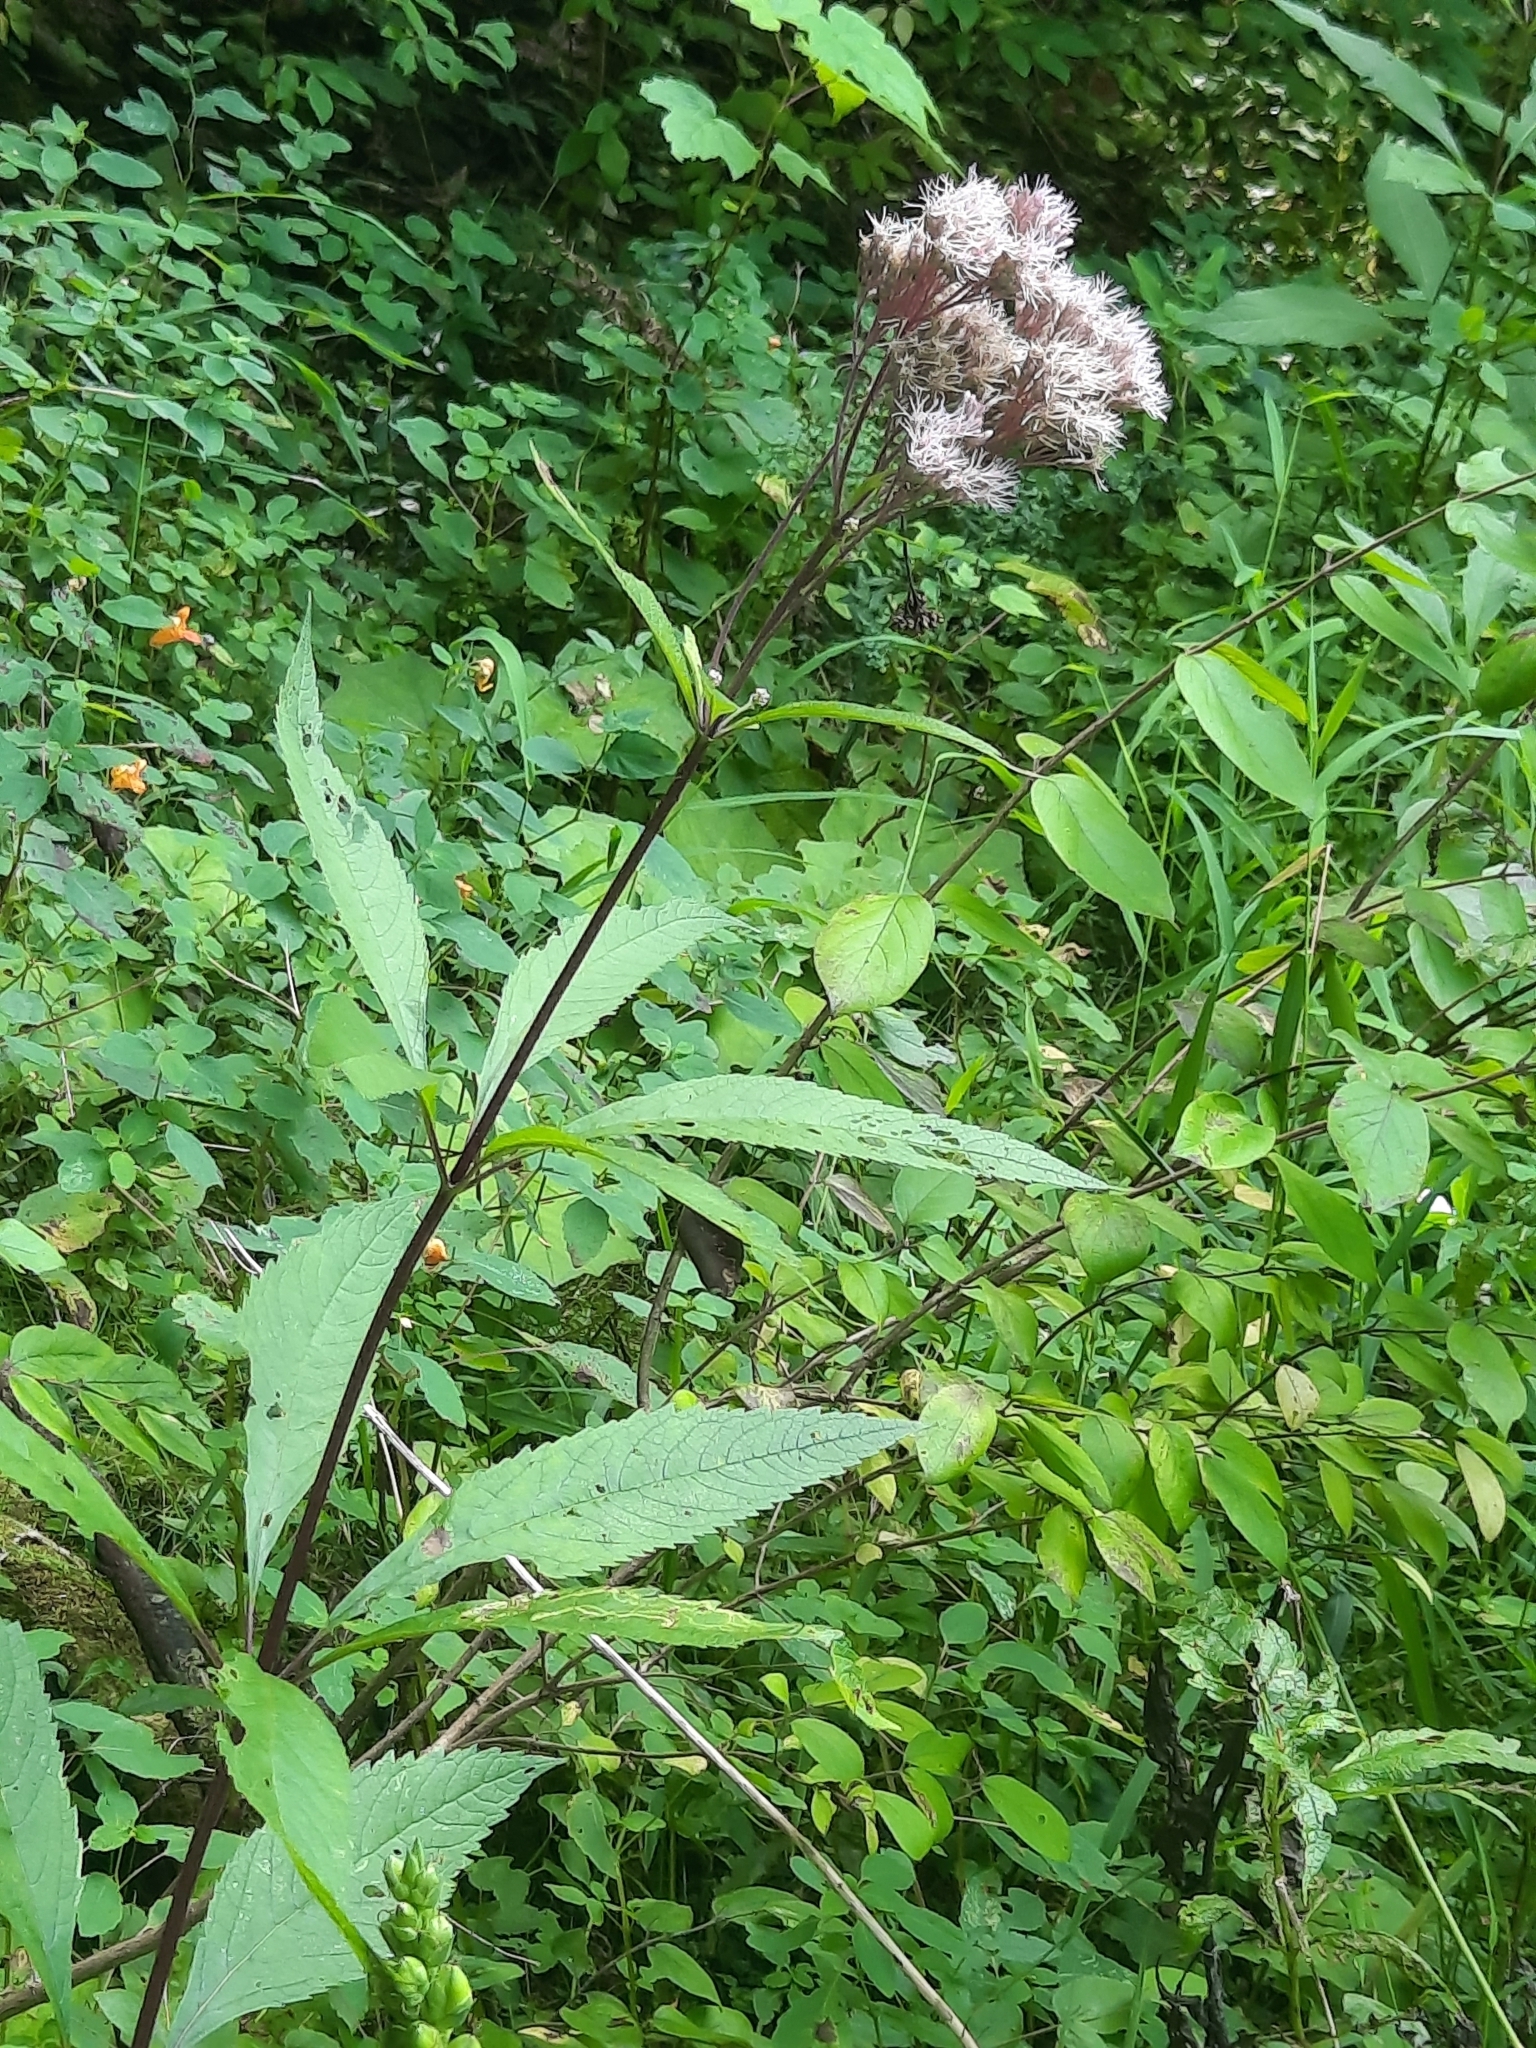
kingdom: Plantae
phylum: Tracheophyta
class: Magnoliopsida
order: Asterales
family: Asteraceae
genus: Eutrochium
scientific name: Eutrochium maculatum
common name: Spotted joe pye weed
